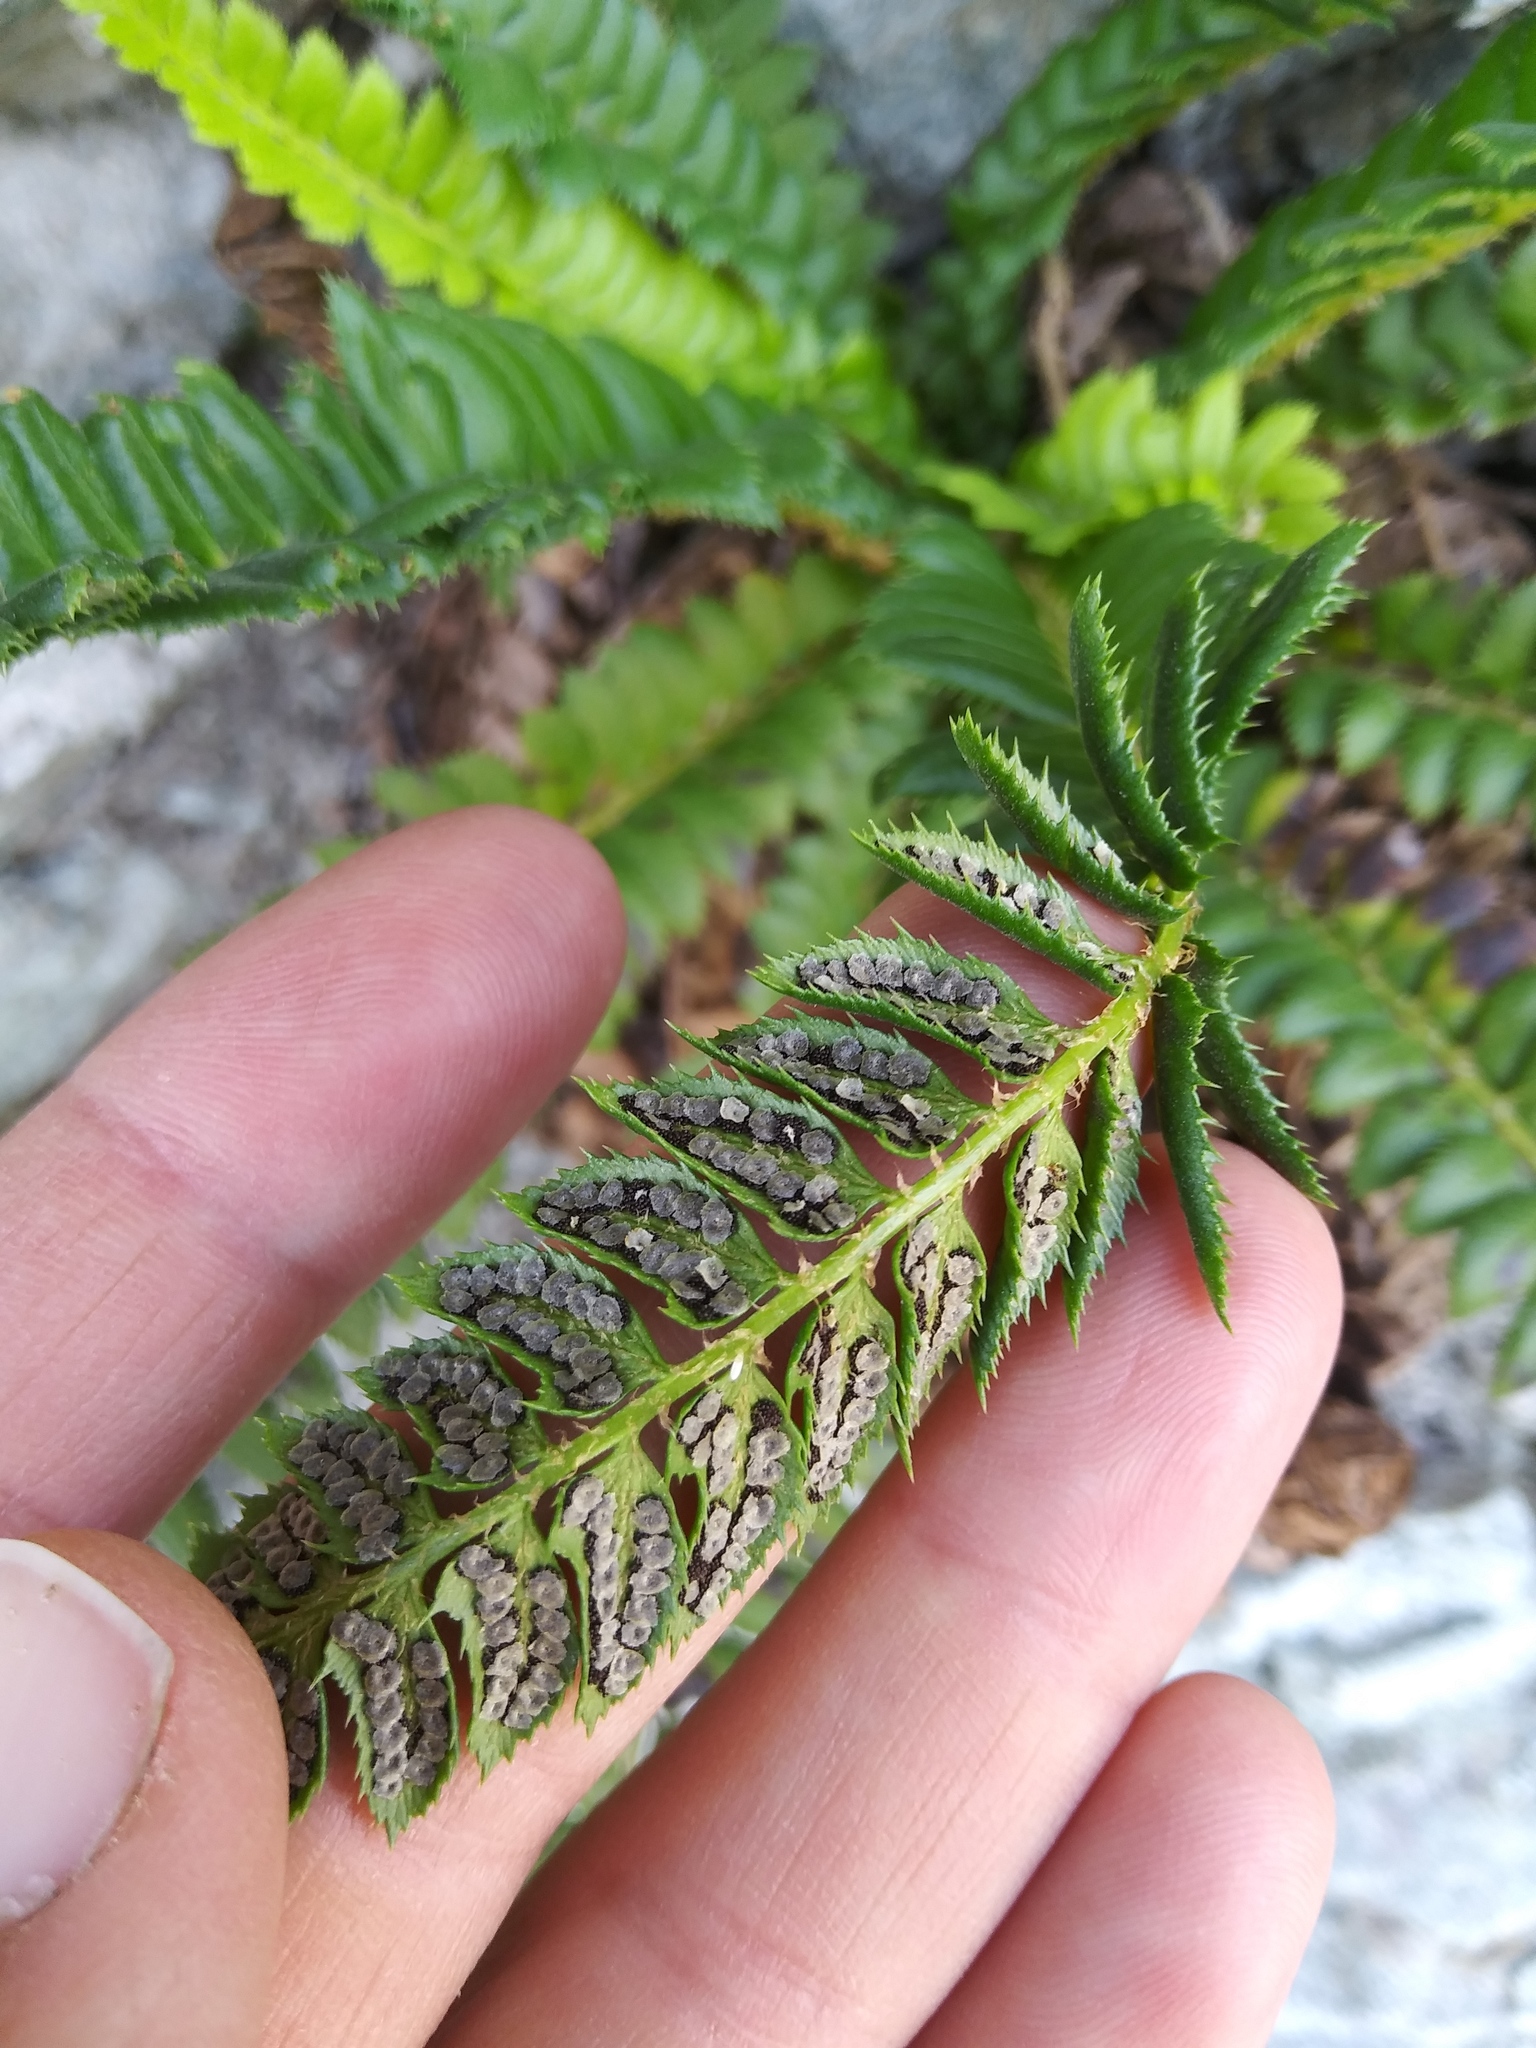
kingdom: Plantae
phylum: Tracheophyta
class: Polypodiopsida
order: Polypodiales
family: Dryopteridaceae
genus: Polystichum
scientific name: Polystichum lonchitis
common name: Holly fern
